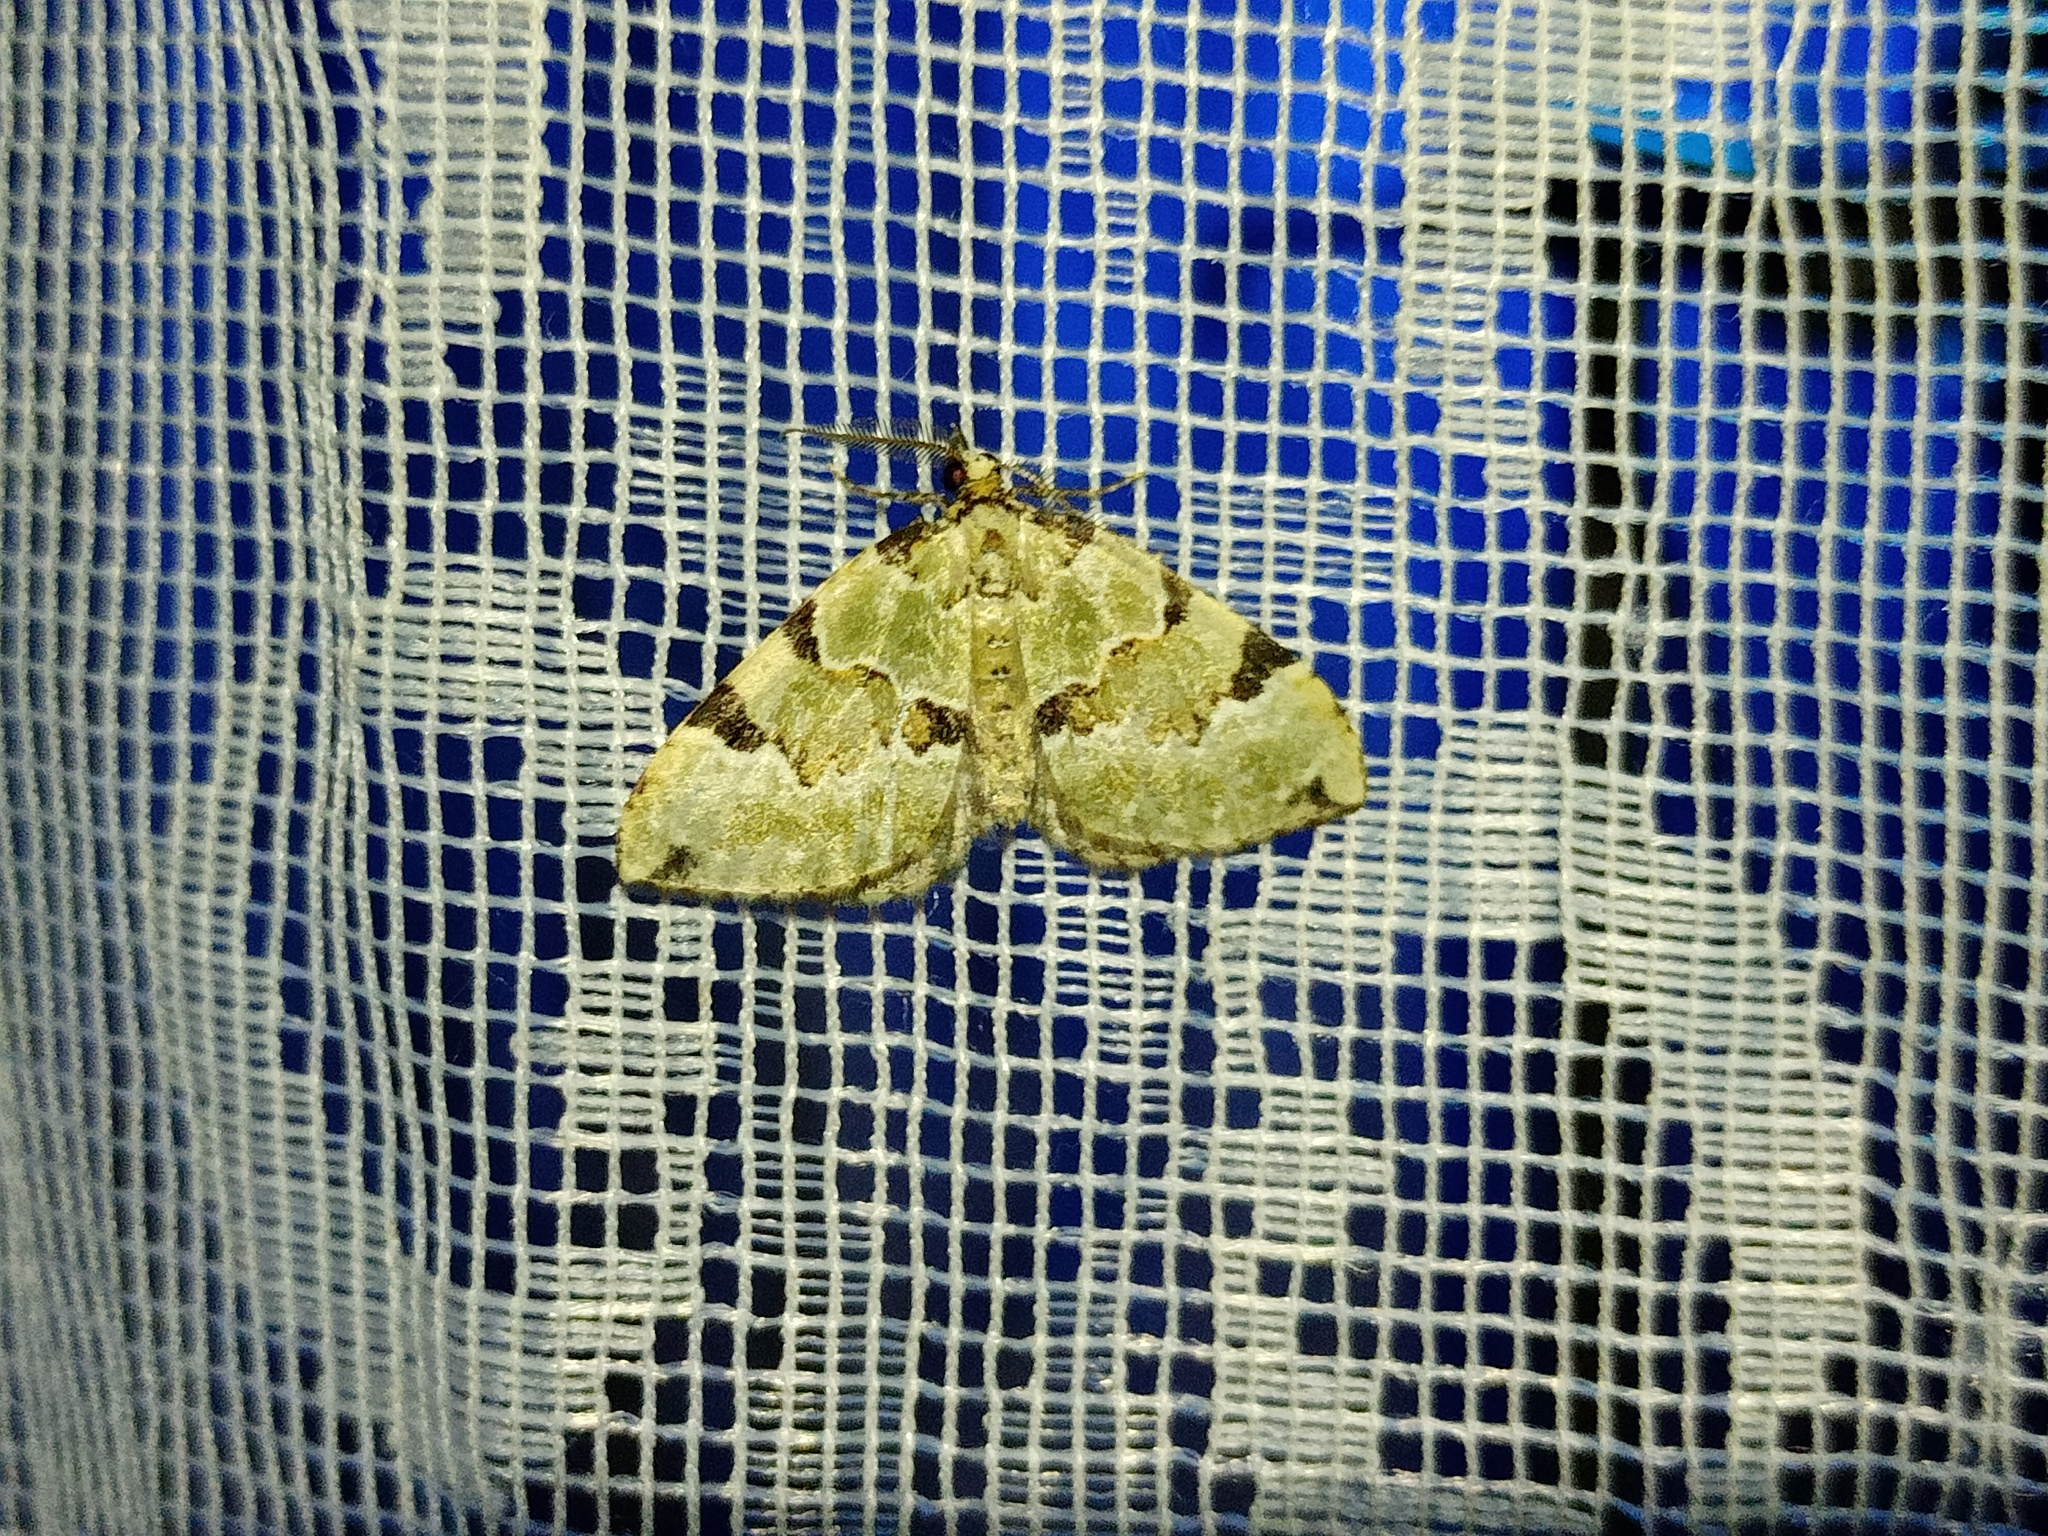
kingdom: Animalia
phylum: Arthropoda
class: Insecta
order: Lepidoptera
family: Geometridae
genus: Colostygia
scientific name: Colostygia pectinataria
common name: Green carpet
